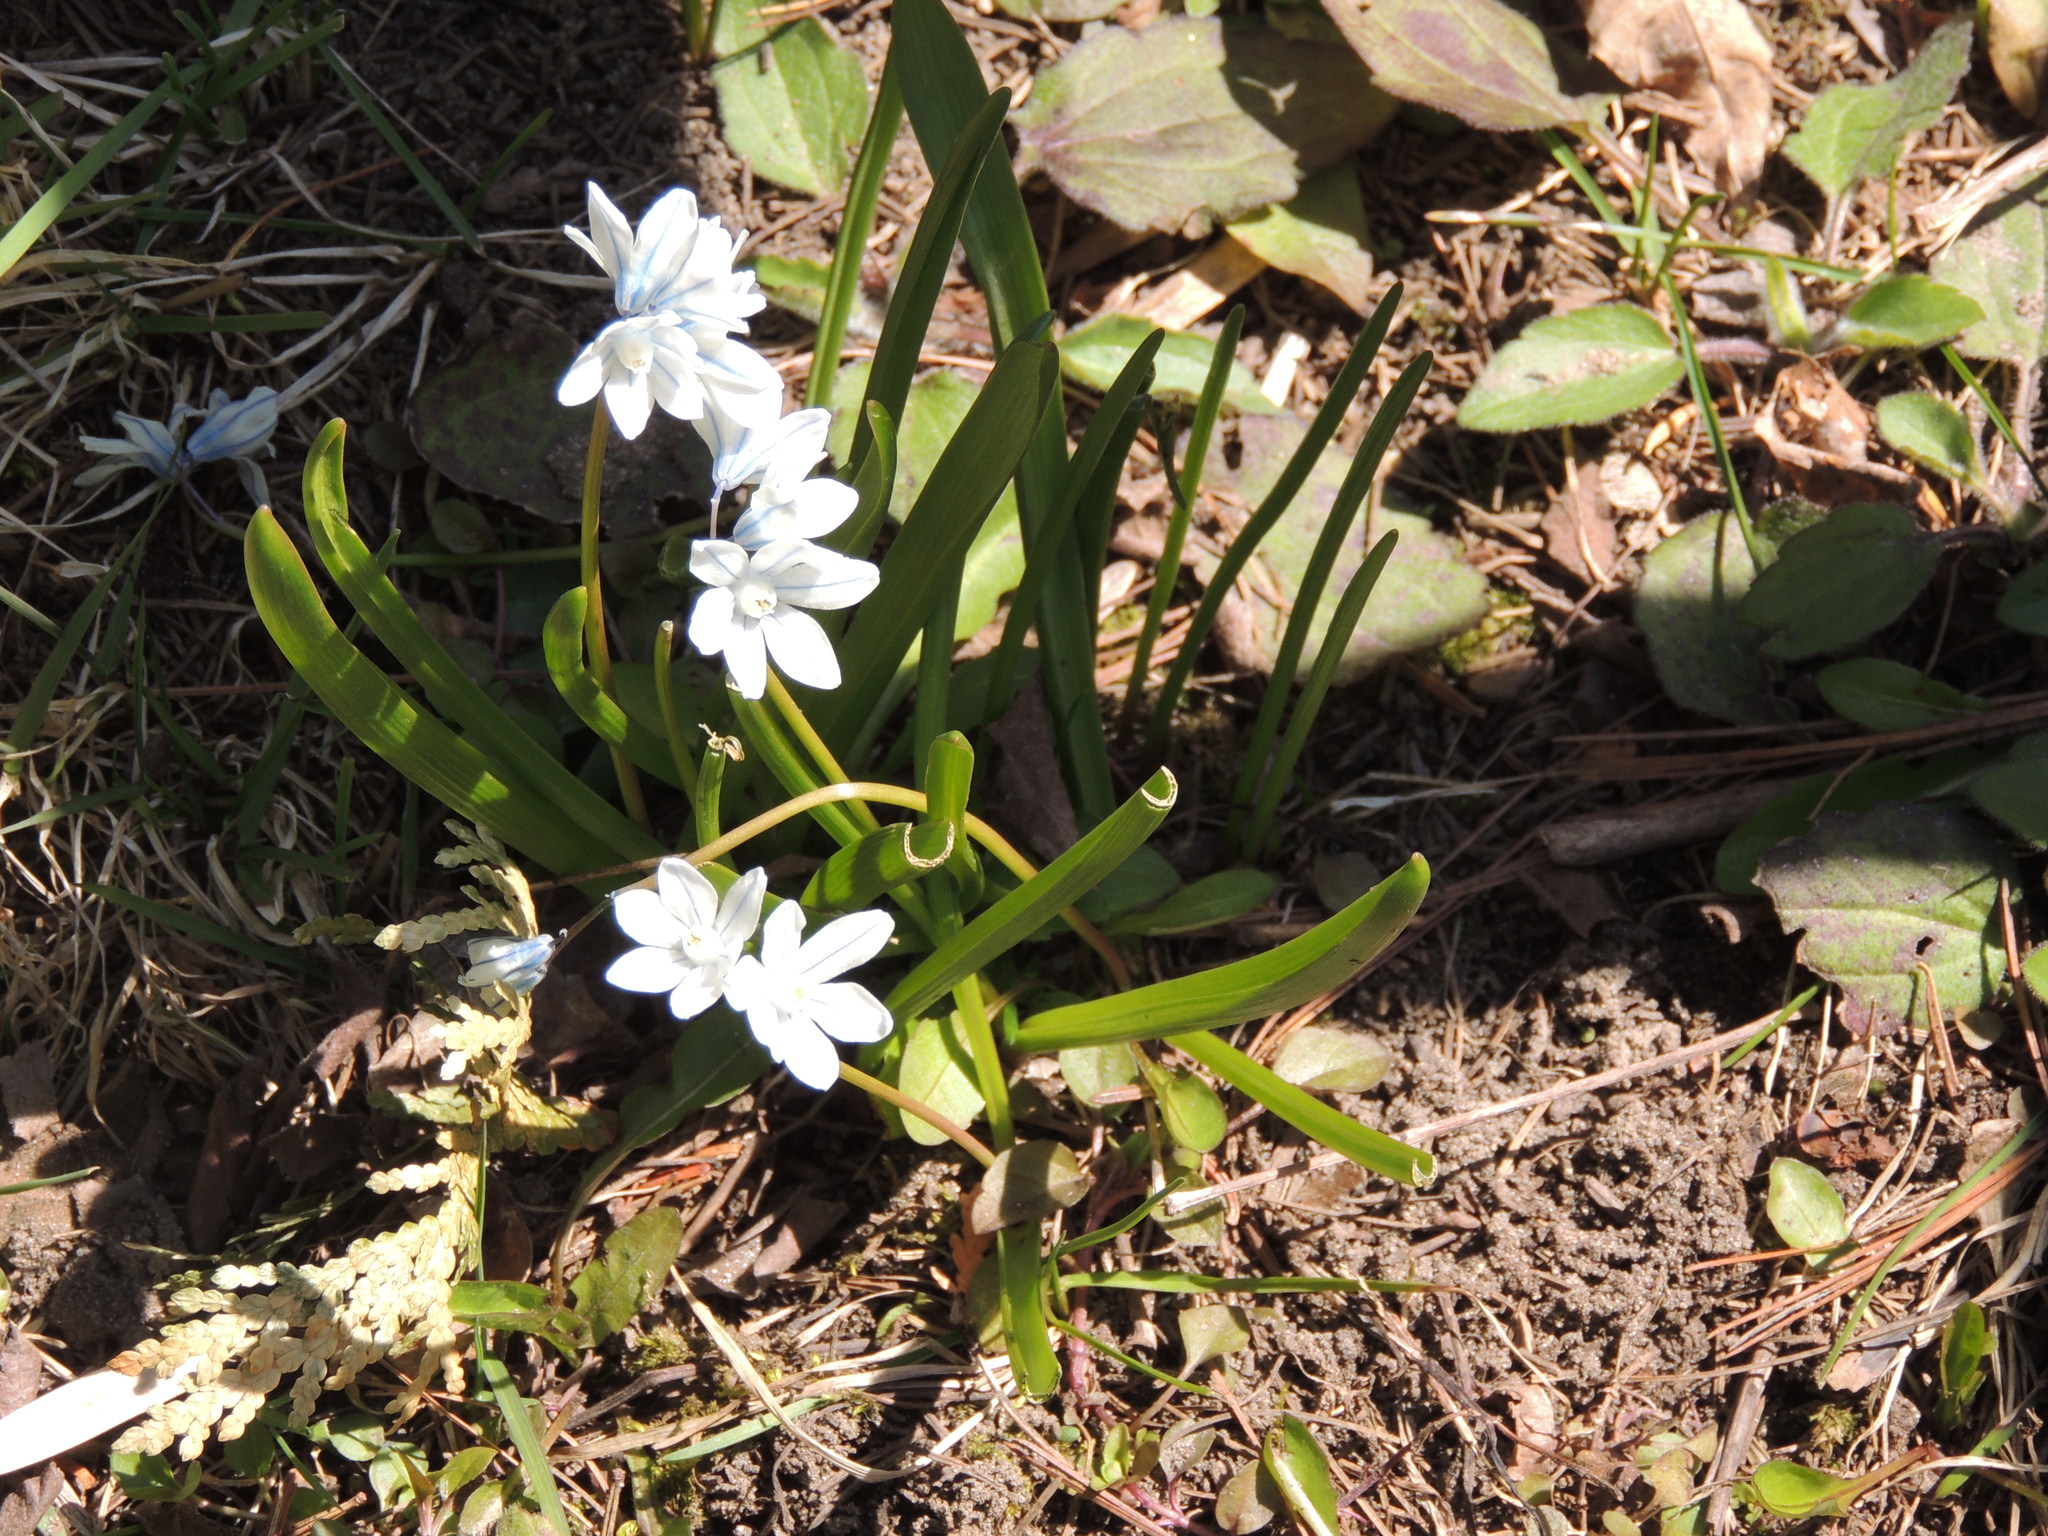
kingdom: Plantae
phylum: Tracheophyta
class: Liliopsida
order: Asparagales
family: Asparagaceae
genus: Puschkinia
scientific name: Puschkinia scilloides
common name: Striped squill
